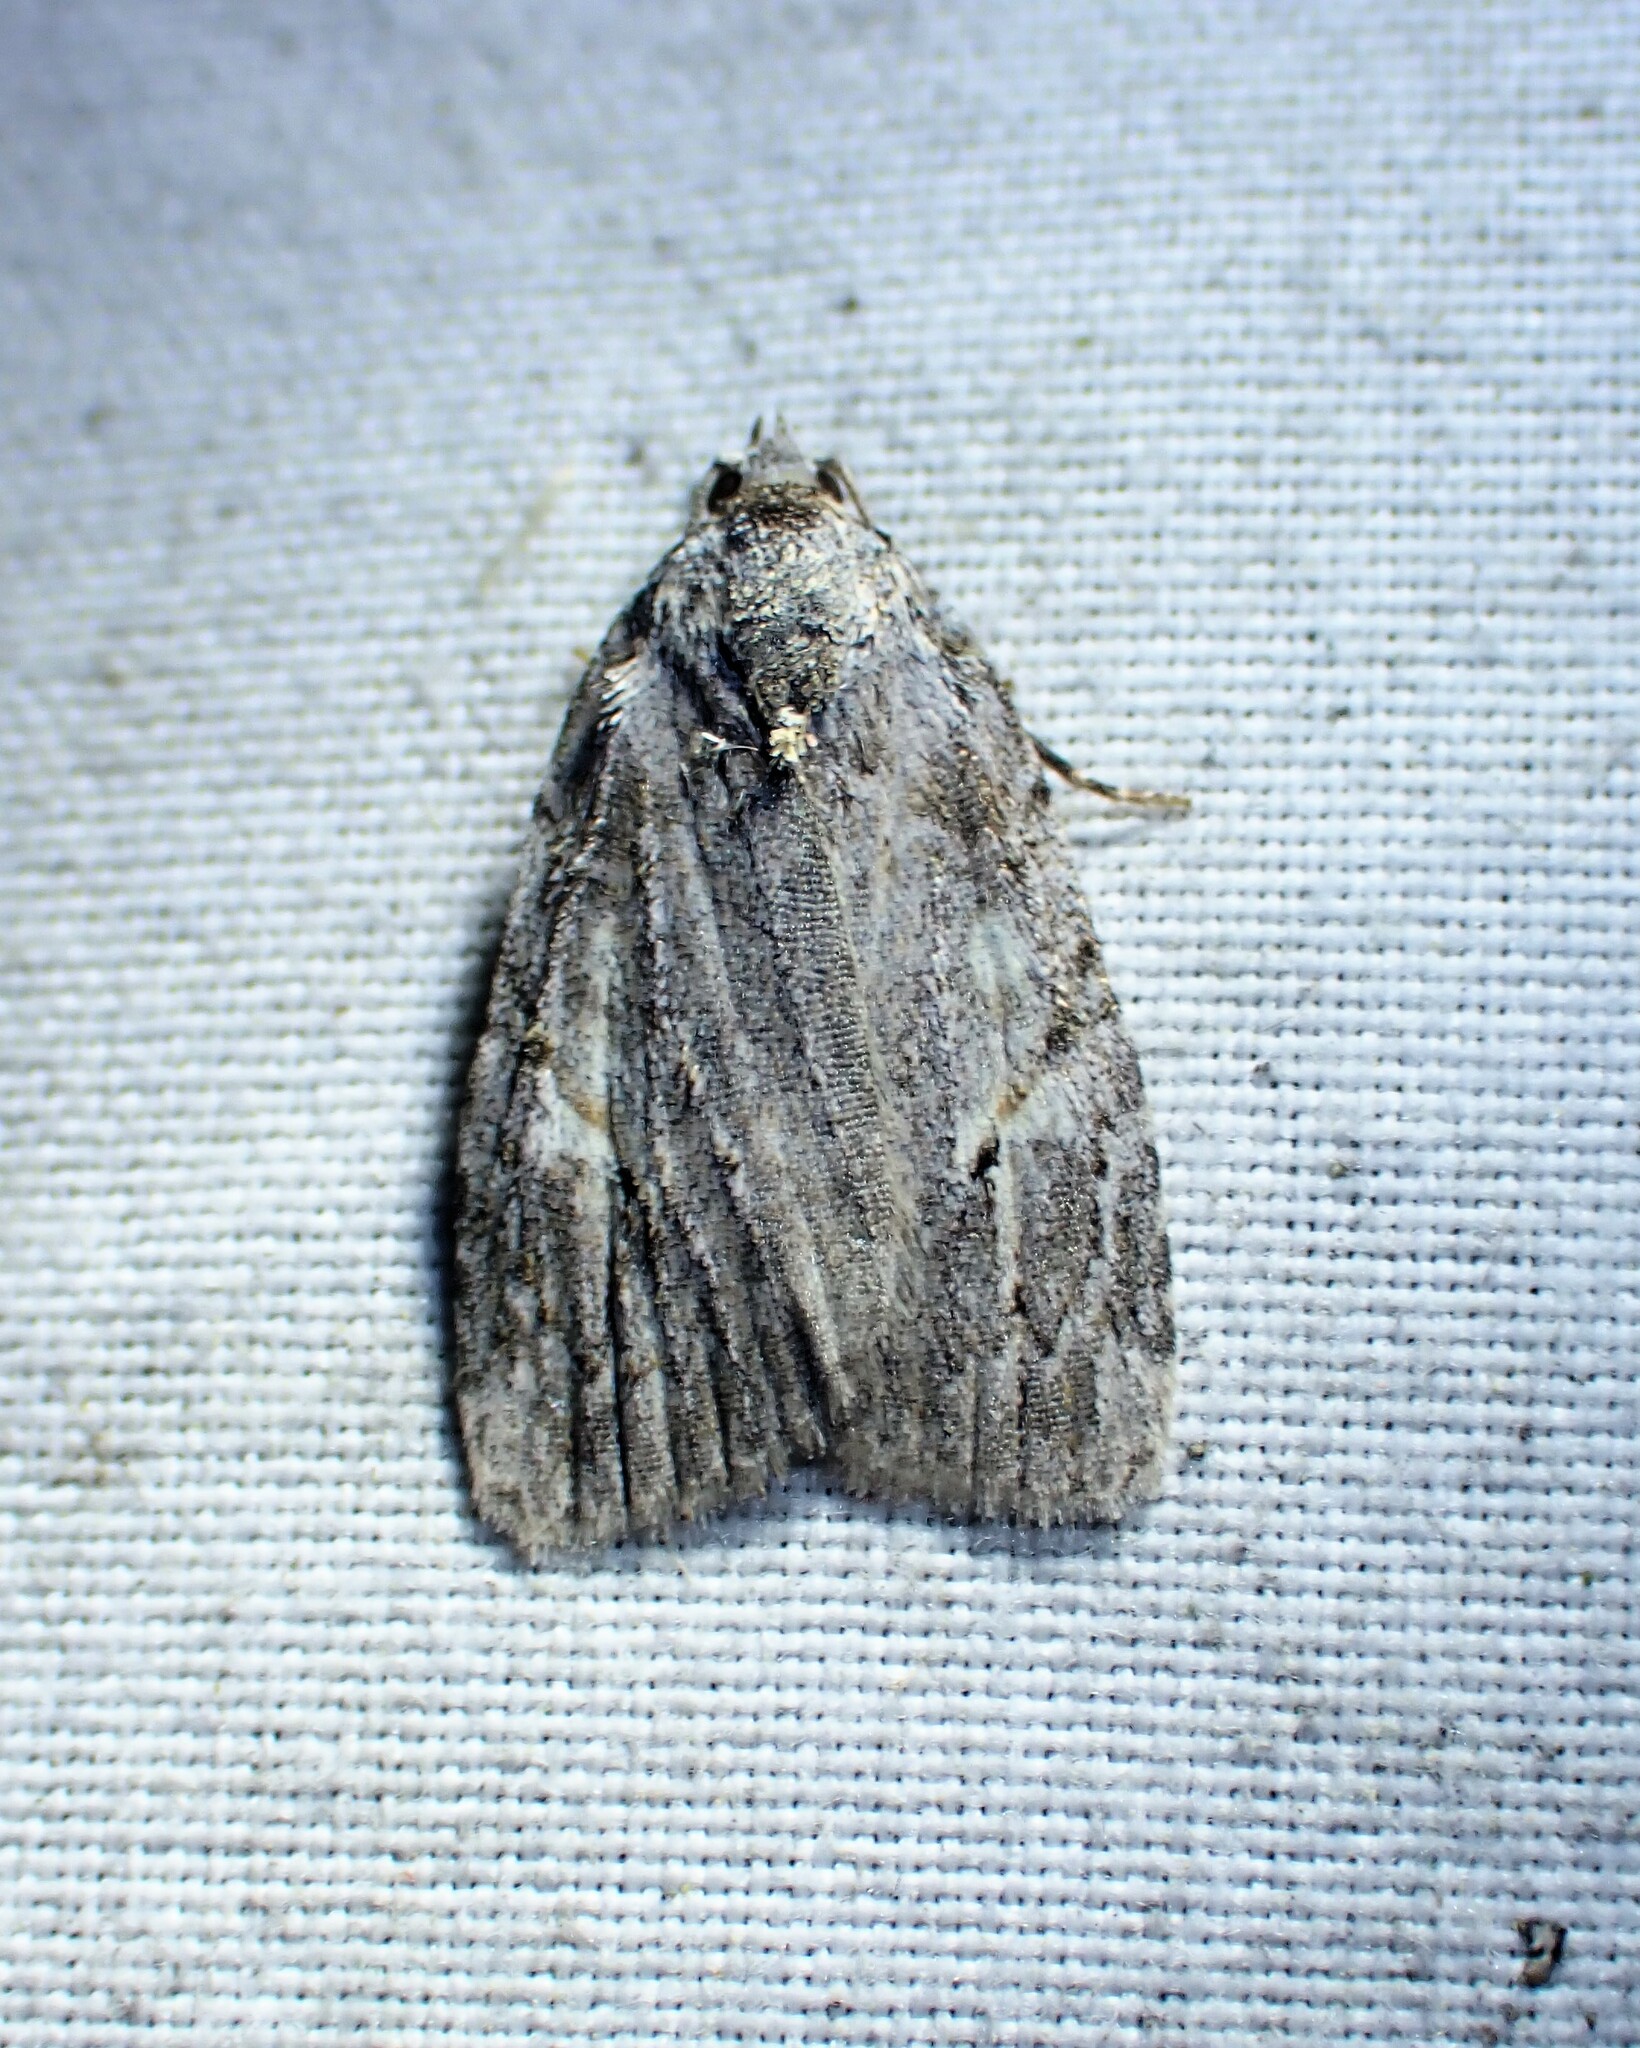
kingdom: Animalia
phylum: Arthropoda
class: Insecta
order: Lepidoptera
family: Noctuidae
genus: Balsa
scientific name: Balsa labecula
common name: White-blotched balsa moth
